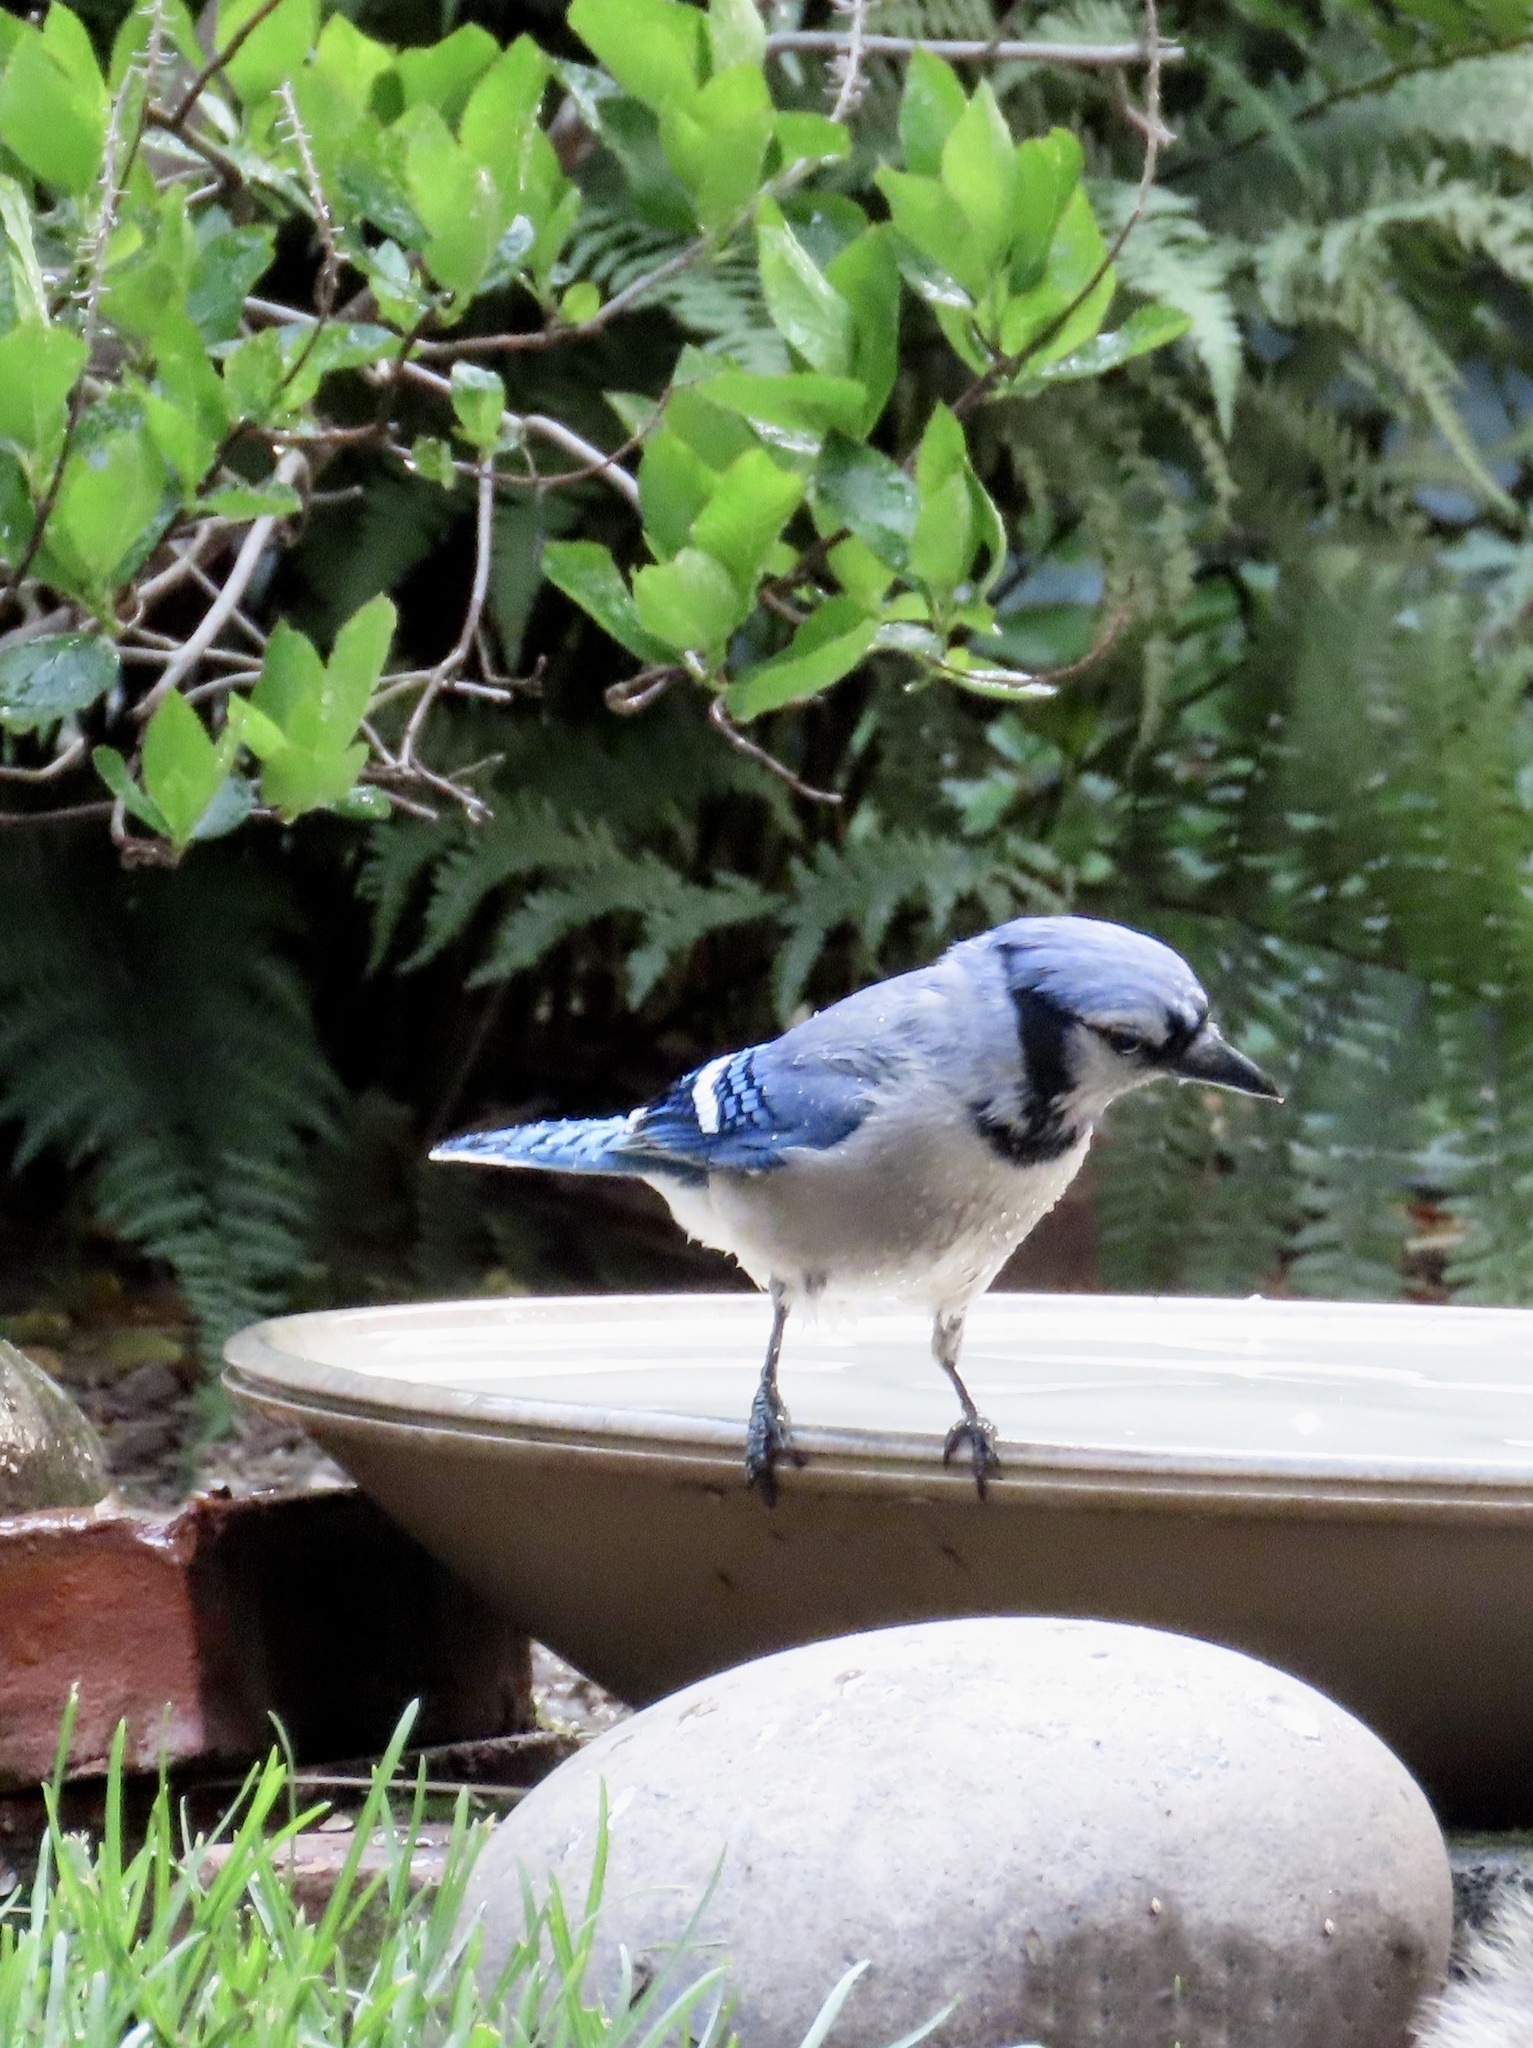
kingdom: Animalia
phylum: Chordata
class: Aves
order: Passeriformes
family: Corvidae
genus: Cyanocitta
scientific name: Cyanocitta cristata
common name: Blue jay
